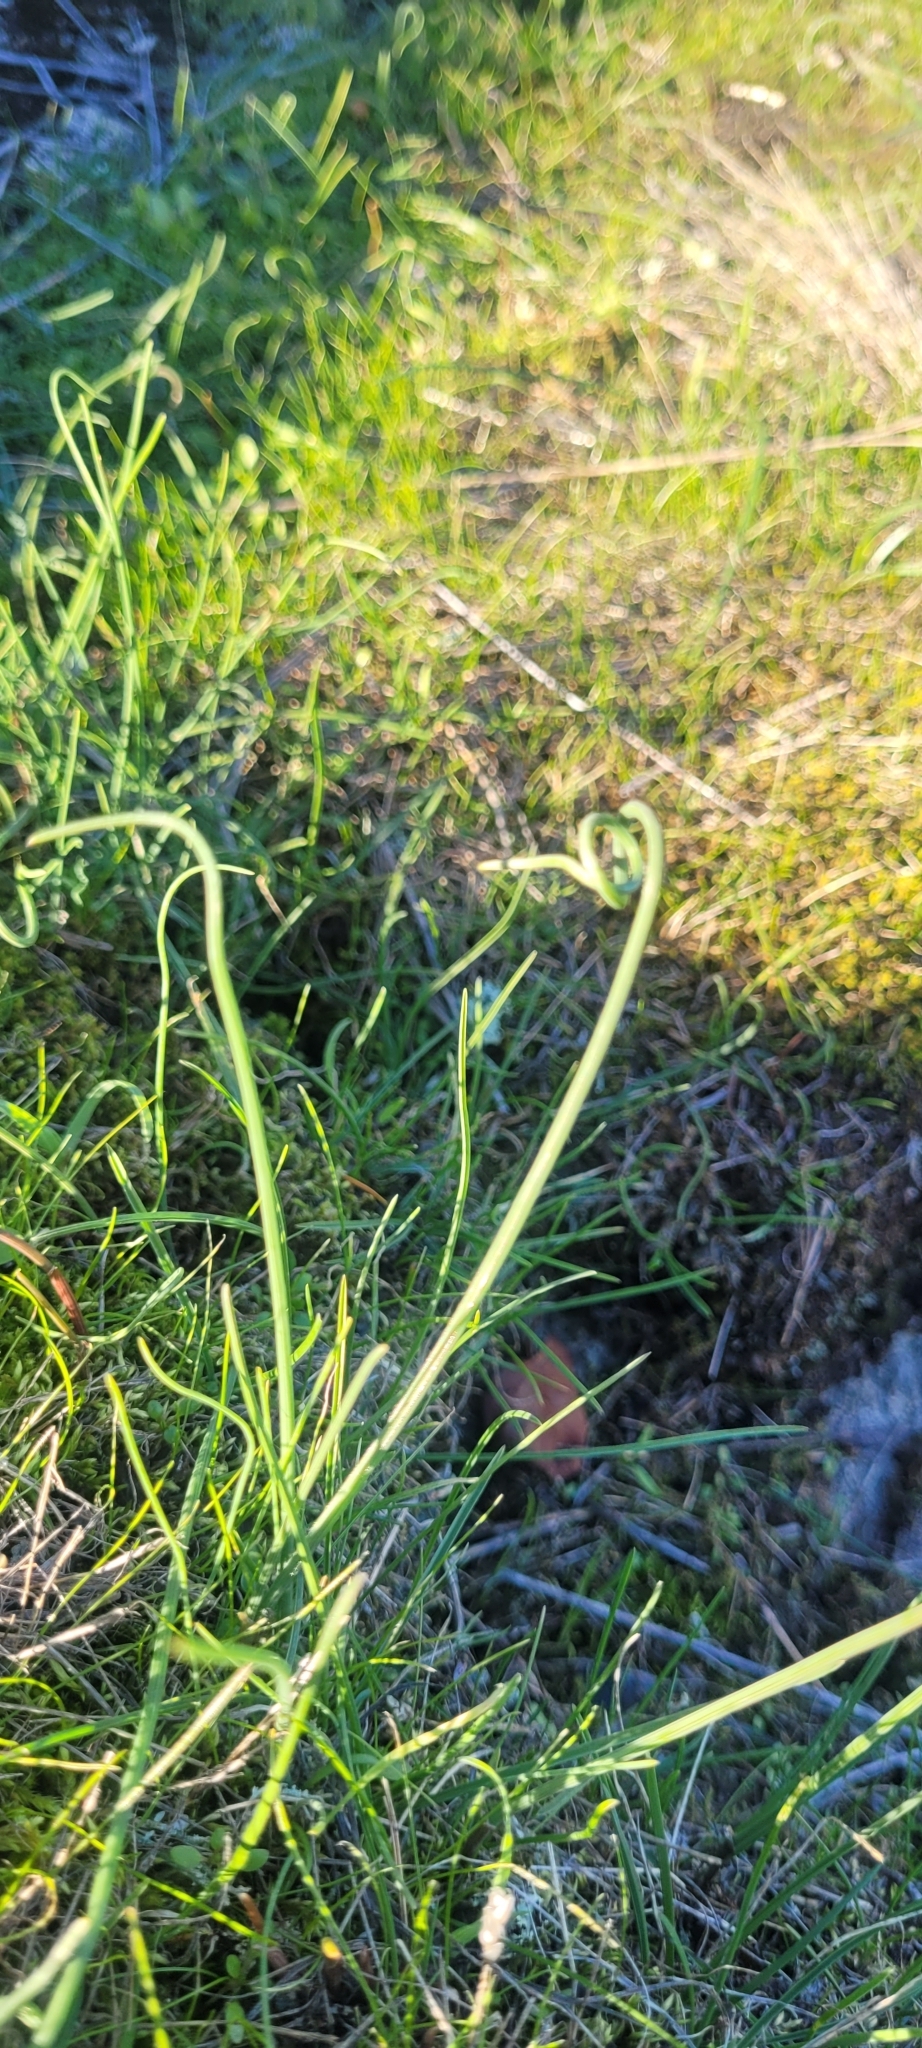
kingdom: Plantae
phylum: Tracheophyta
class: Liliopsida
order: Asparagales
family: Amaryllidaceae
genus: Allium
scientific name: Allium vineale
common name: Crow garlic
